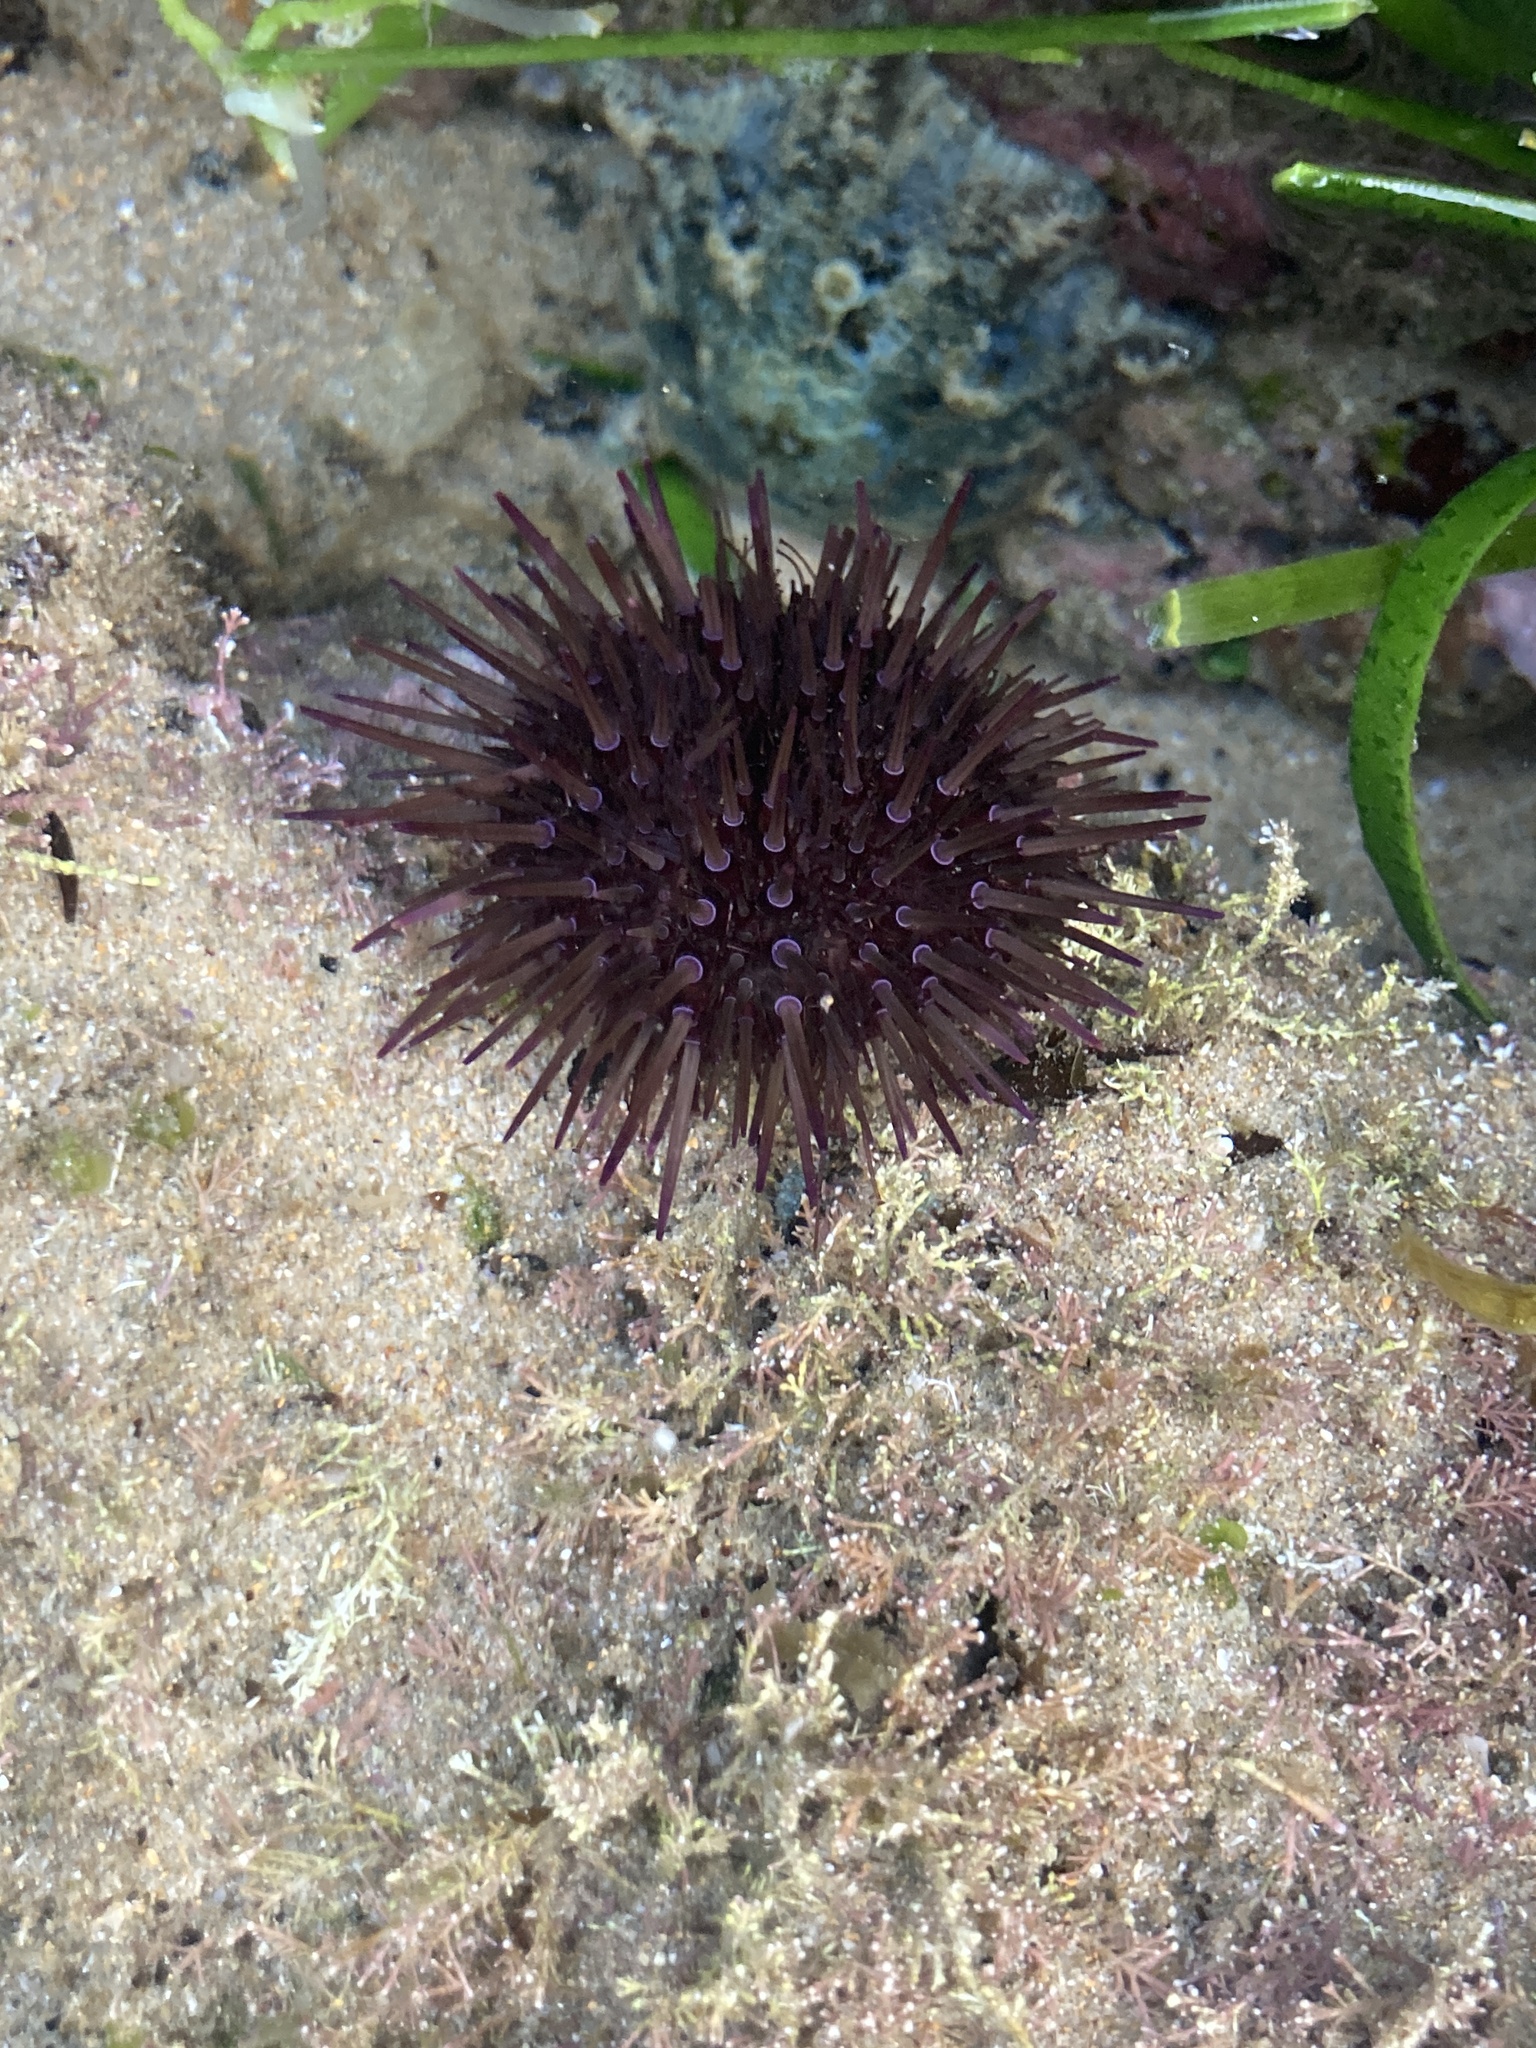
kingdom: Animalia
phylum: Echinodermata
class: Echinoidea
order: Camarodonta
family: Echinometridae
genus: Heliocidaris
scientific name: Heliocidaris erythrogramma
